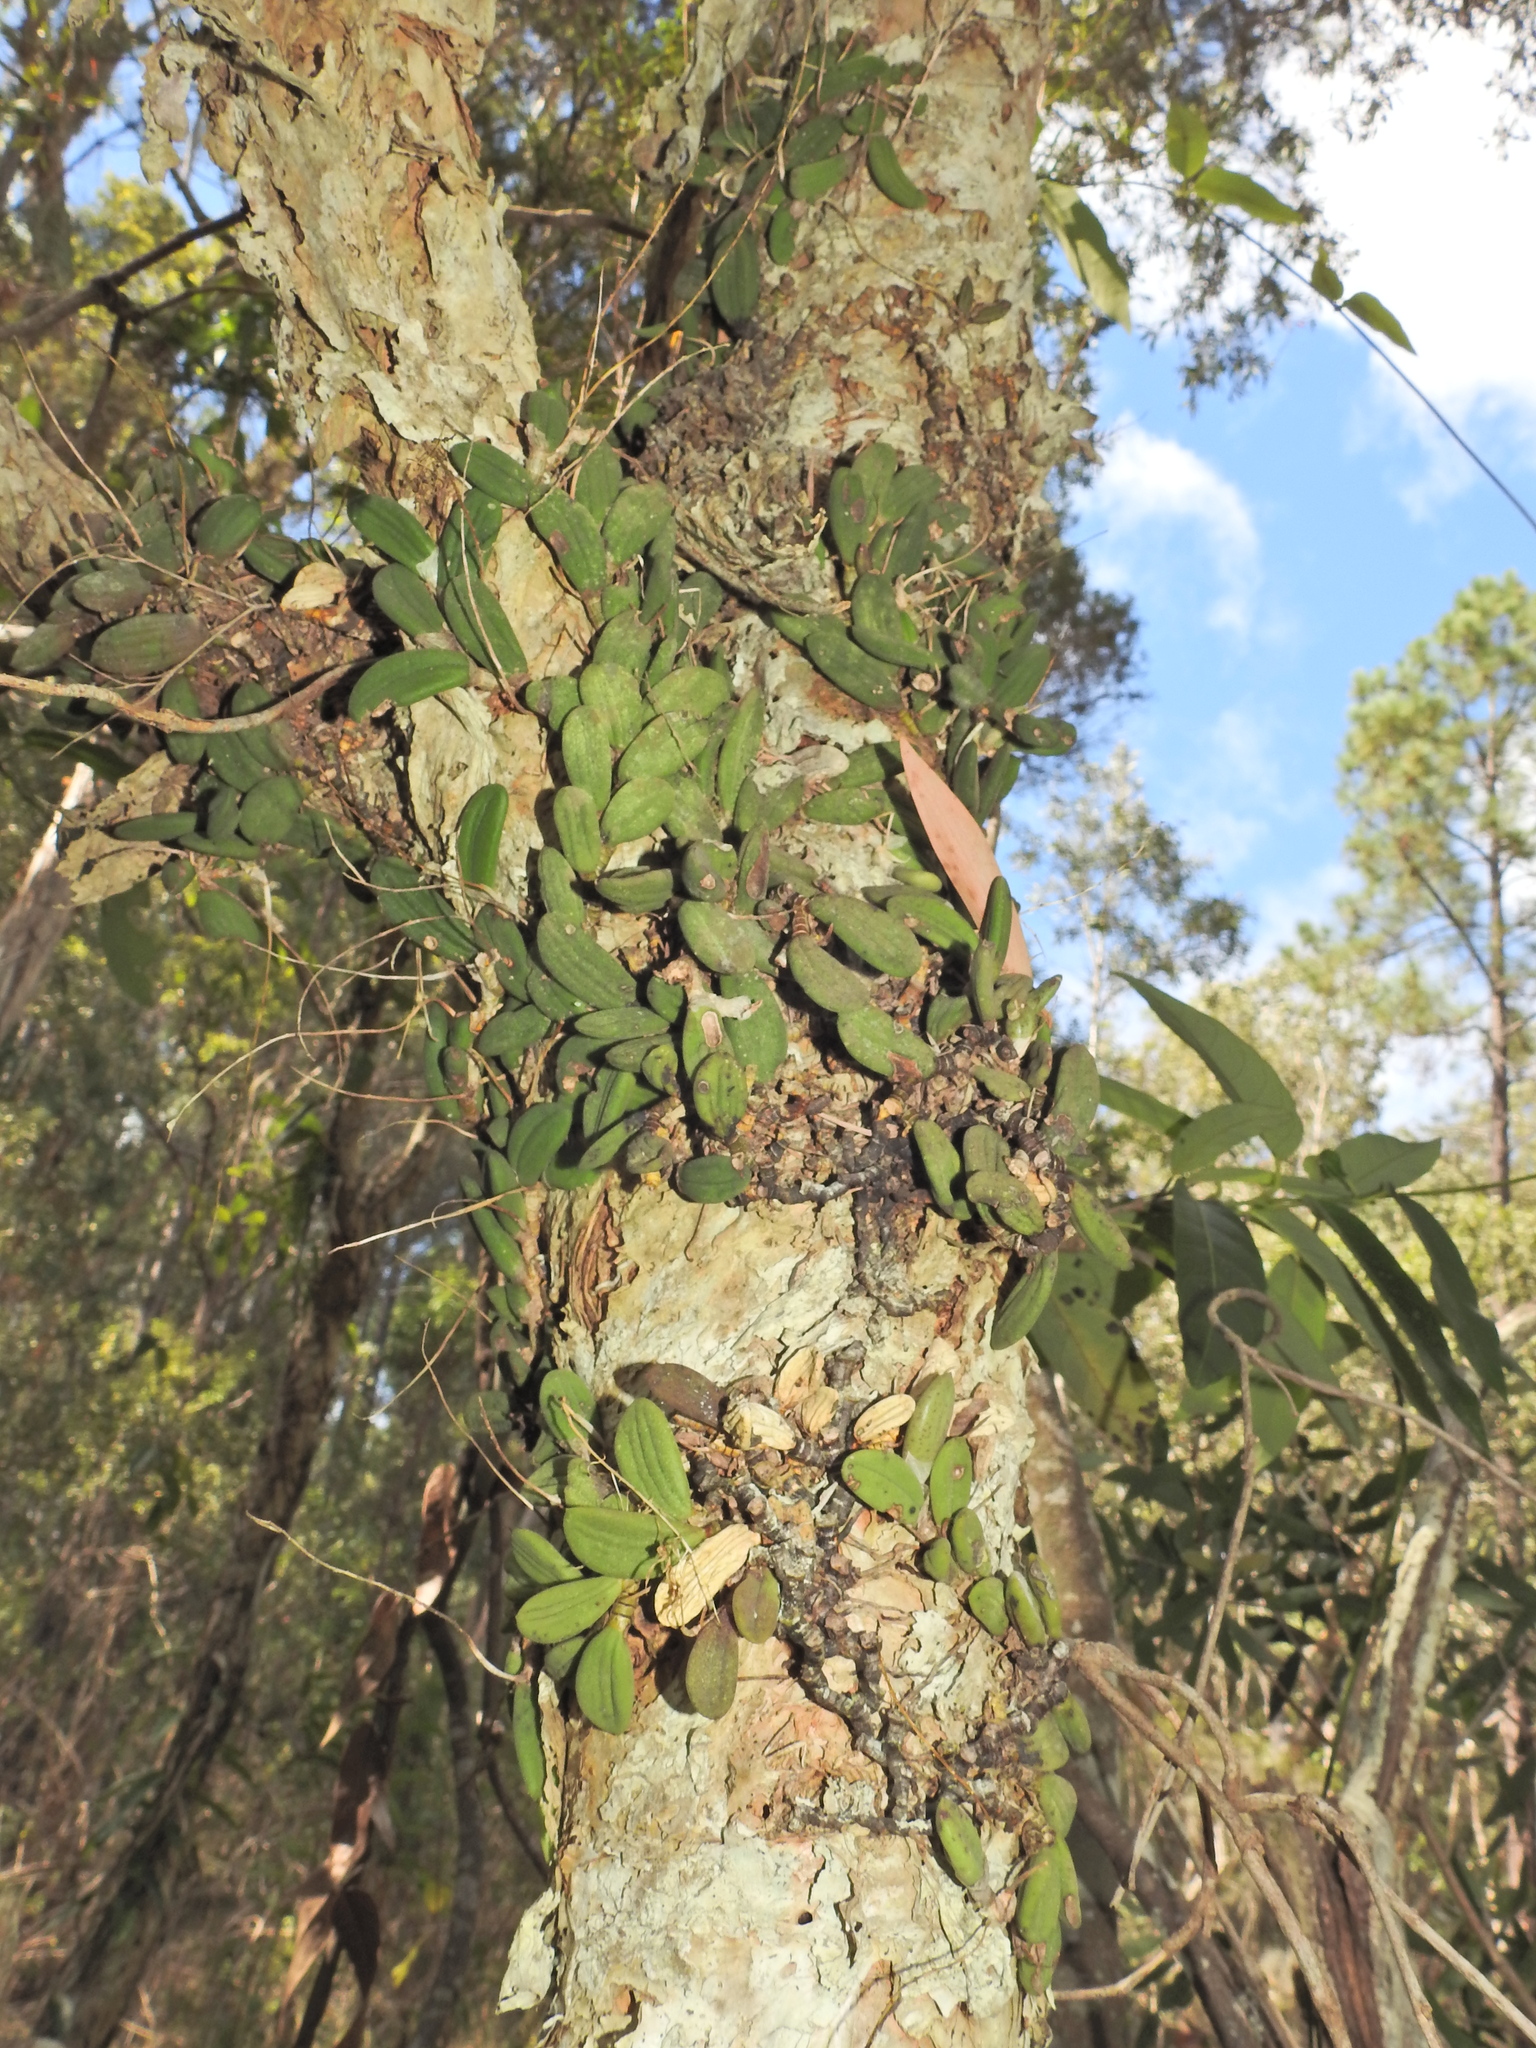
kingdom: Plantae
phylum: Tracheophyta
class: Liliopsida
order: Asparagales
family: Orchidaceae
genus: Dendrobium
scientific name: Dendrobium linguiforme
